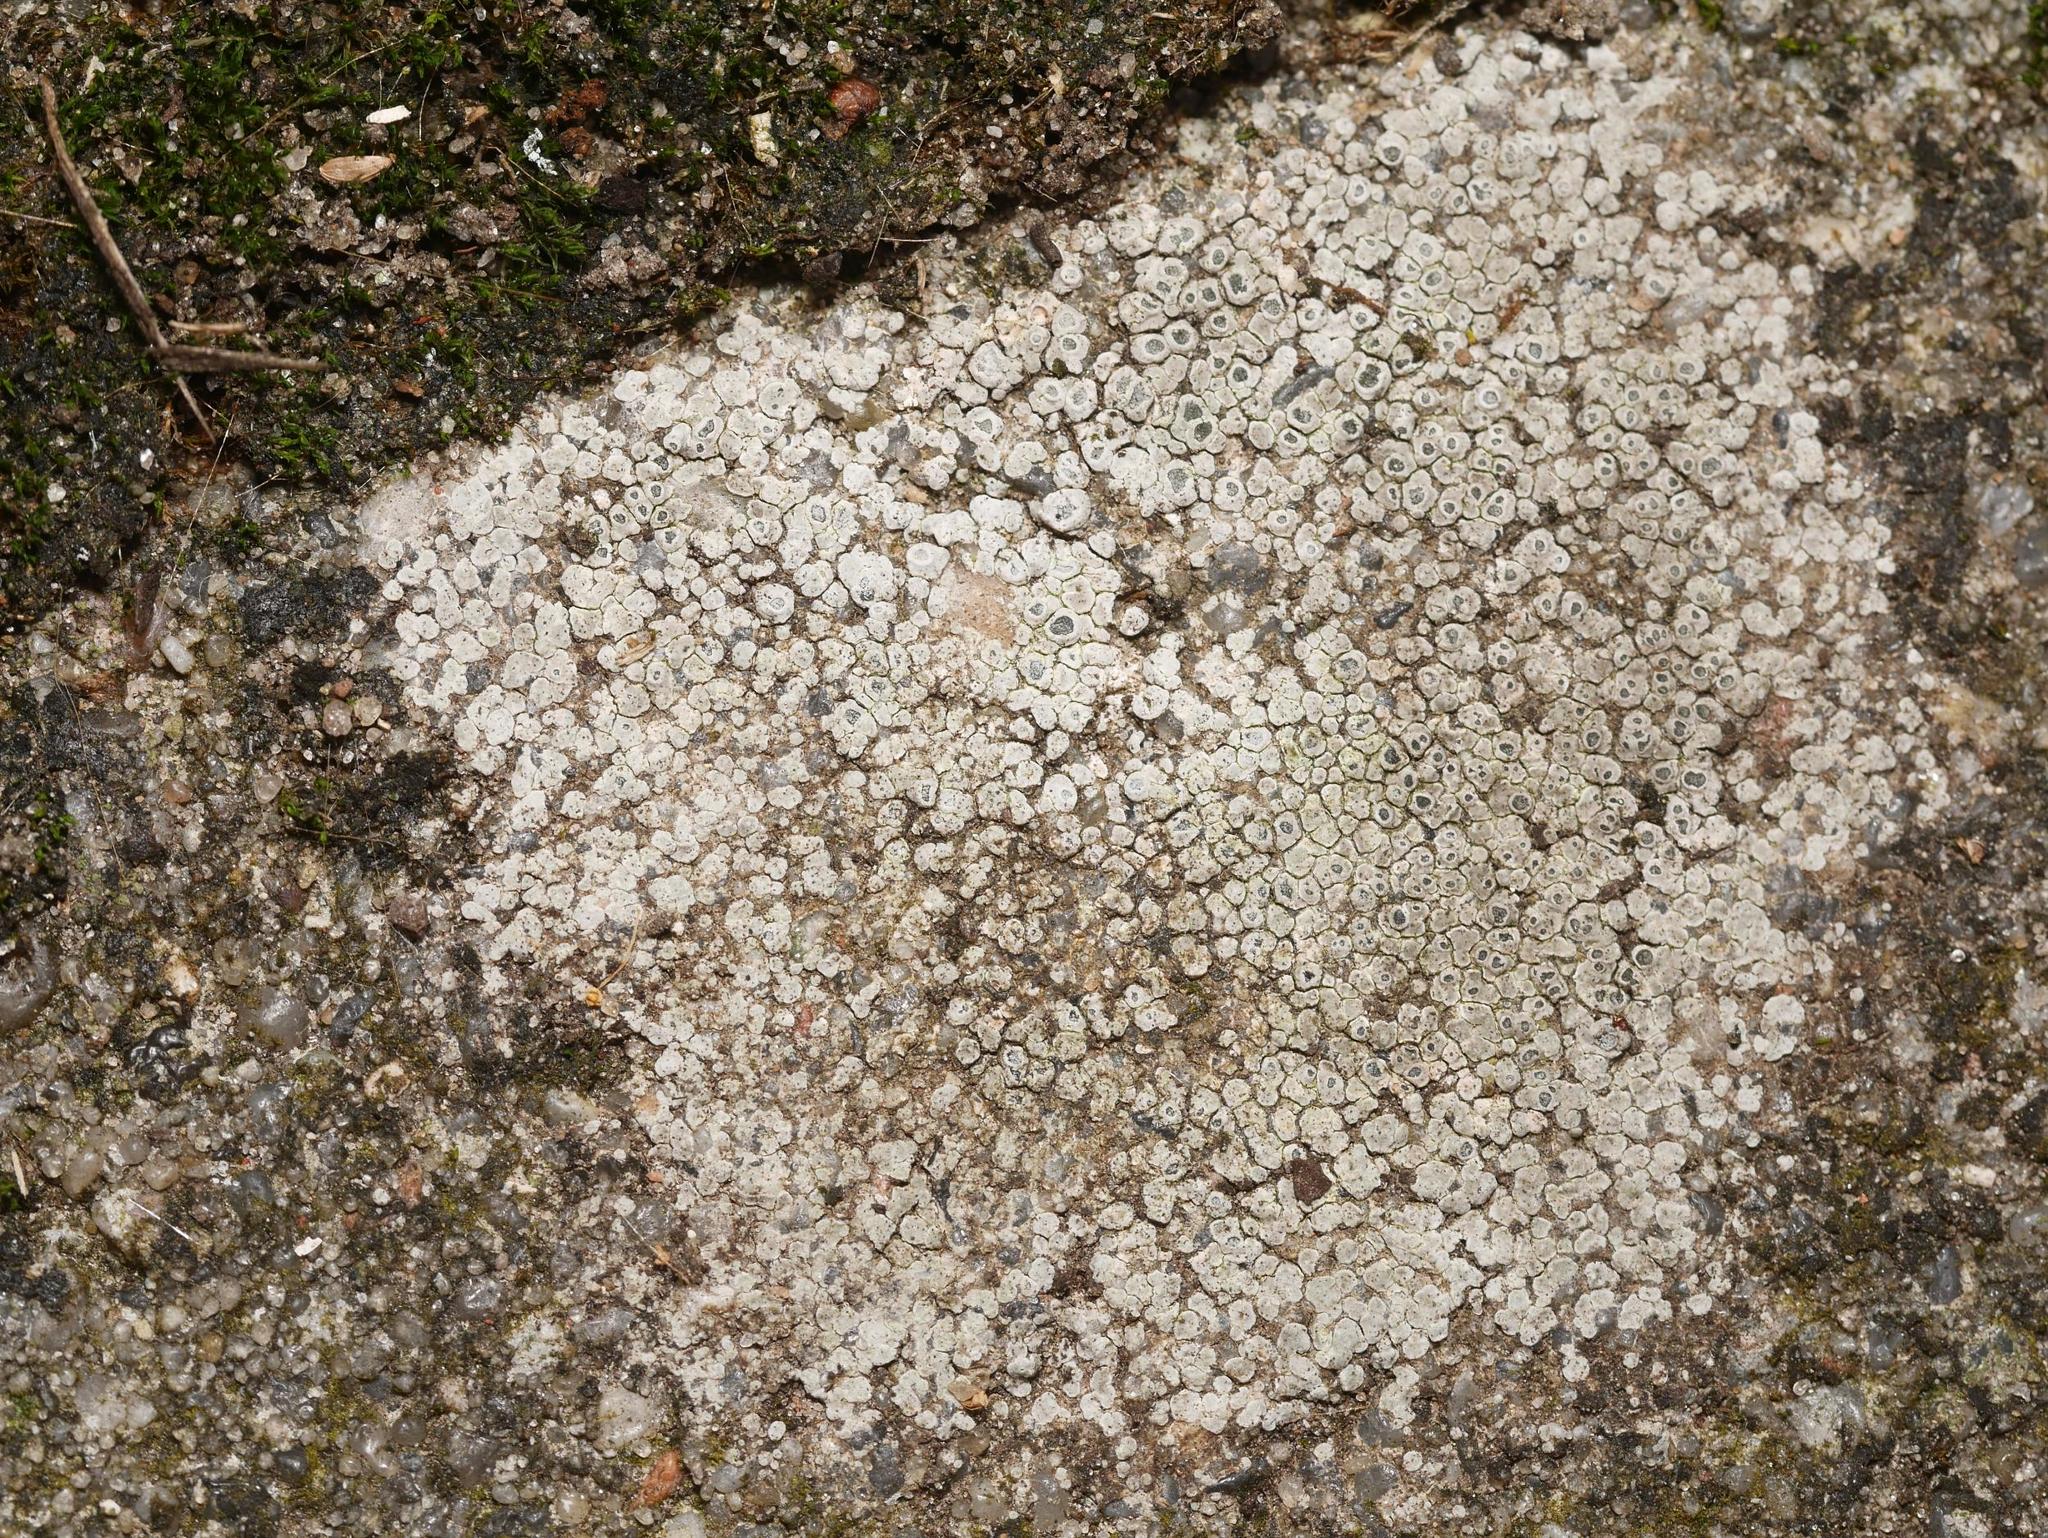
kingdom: Fungi
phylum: Ascomycota
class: Lecanoromycetes
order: Pertusariales
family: Megasporaceae
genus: Circinaria
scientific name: Circinaria contorta
